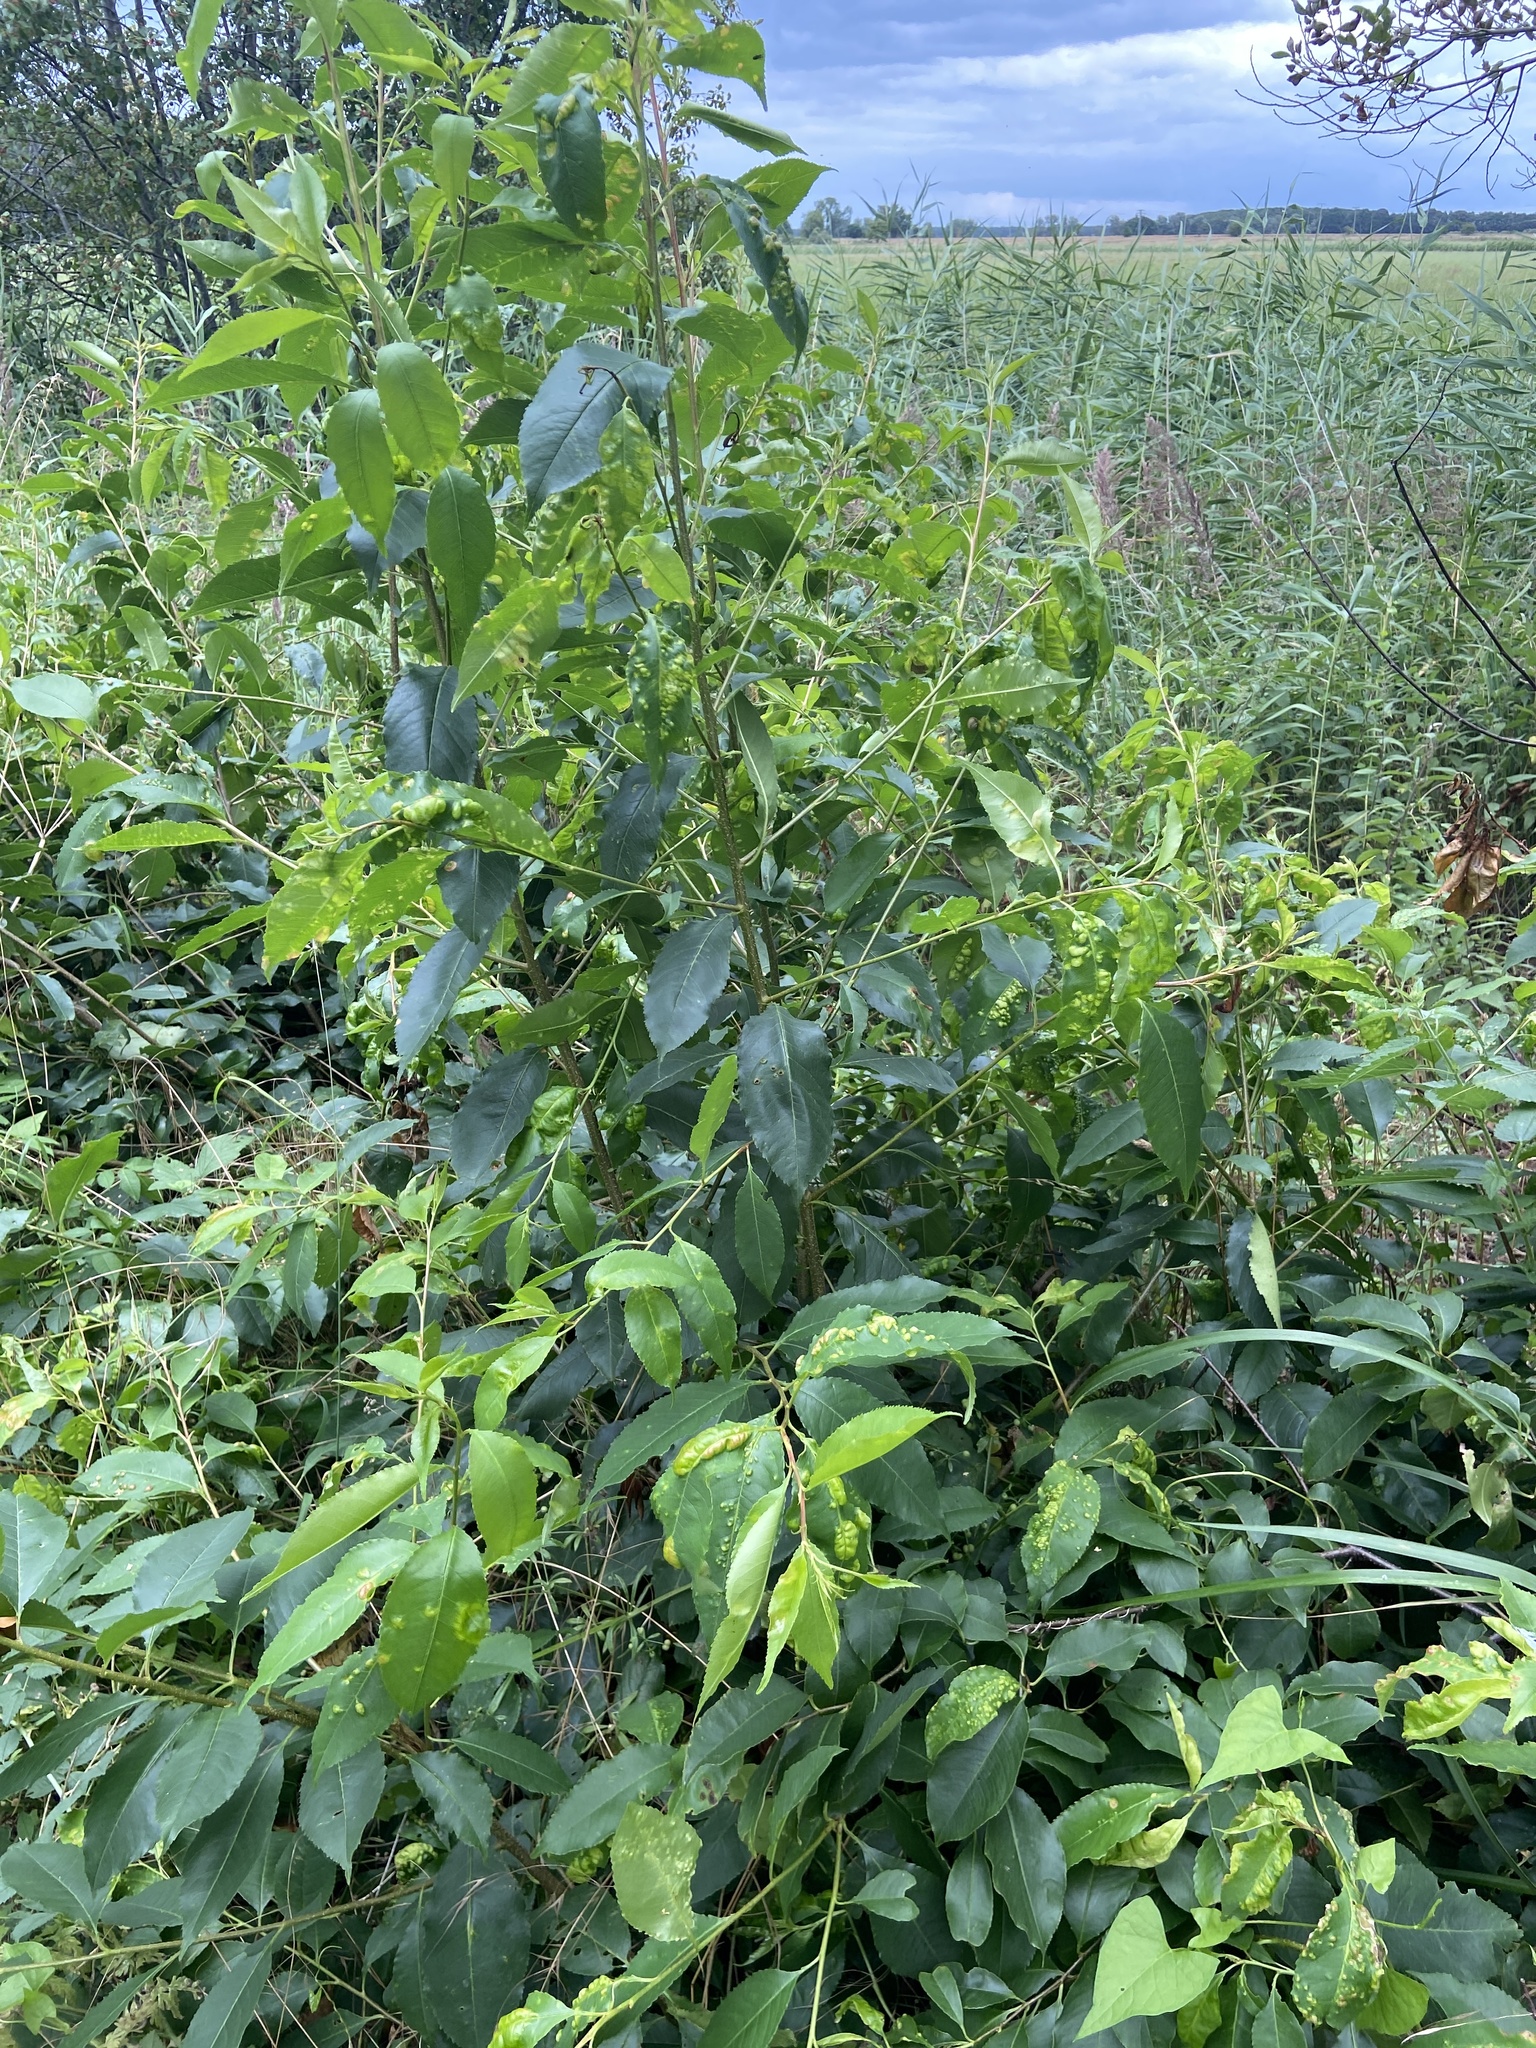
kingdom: Fungi
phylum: Ascomycota
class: Taphrinomycetes
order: Taphrinales
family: Taphrinaceae
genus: Taphrina
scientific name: Taphrina deformans
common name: Peach leaf curl
